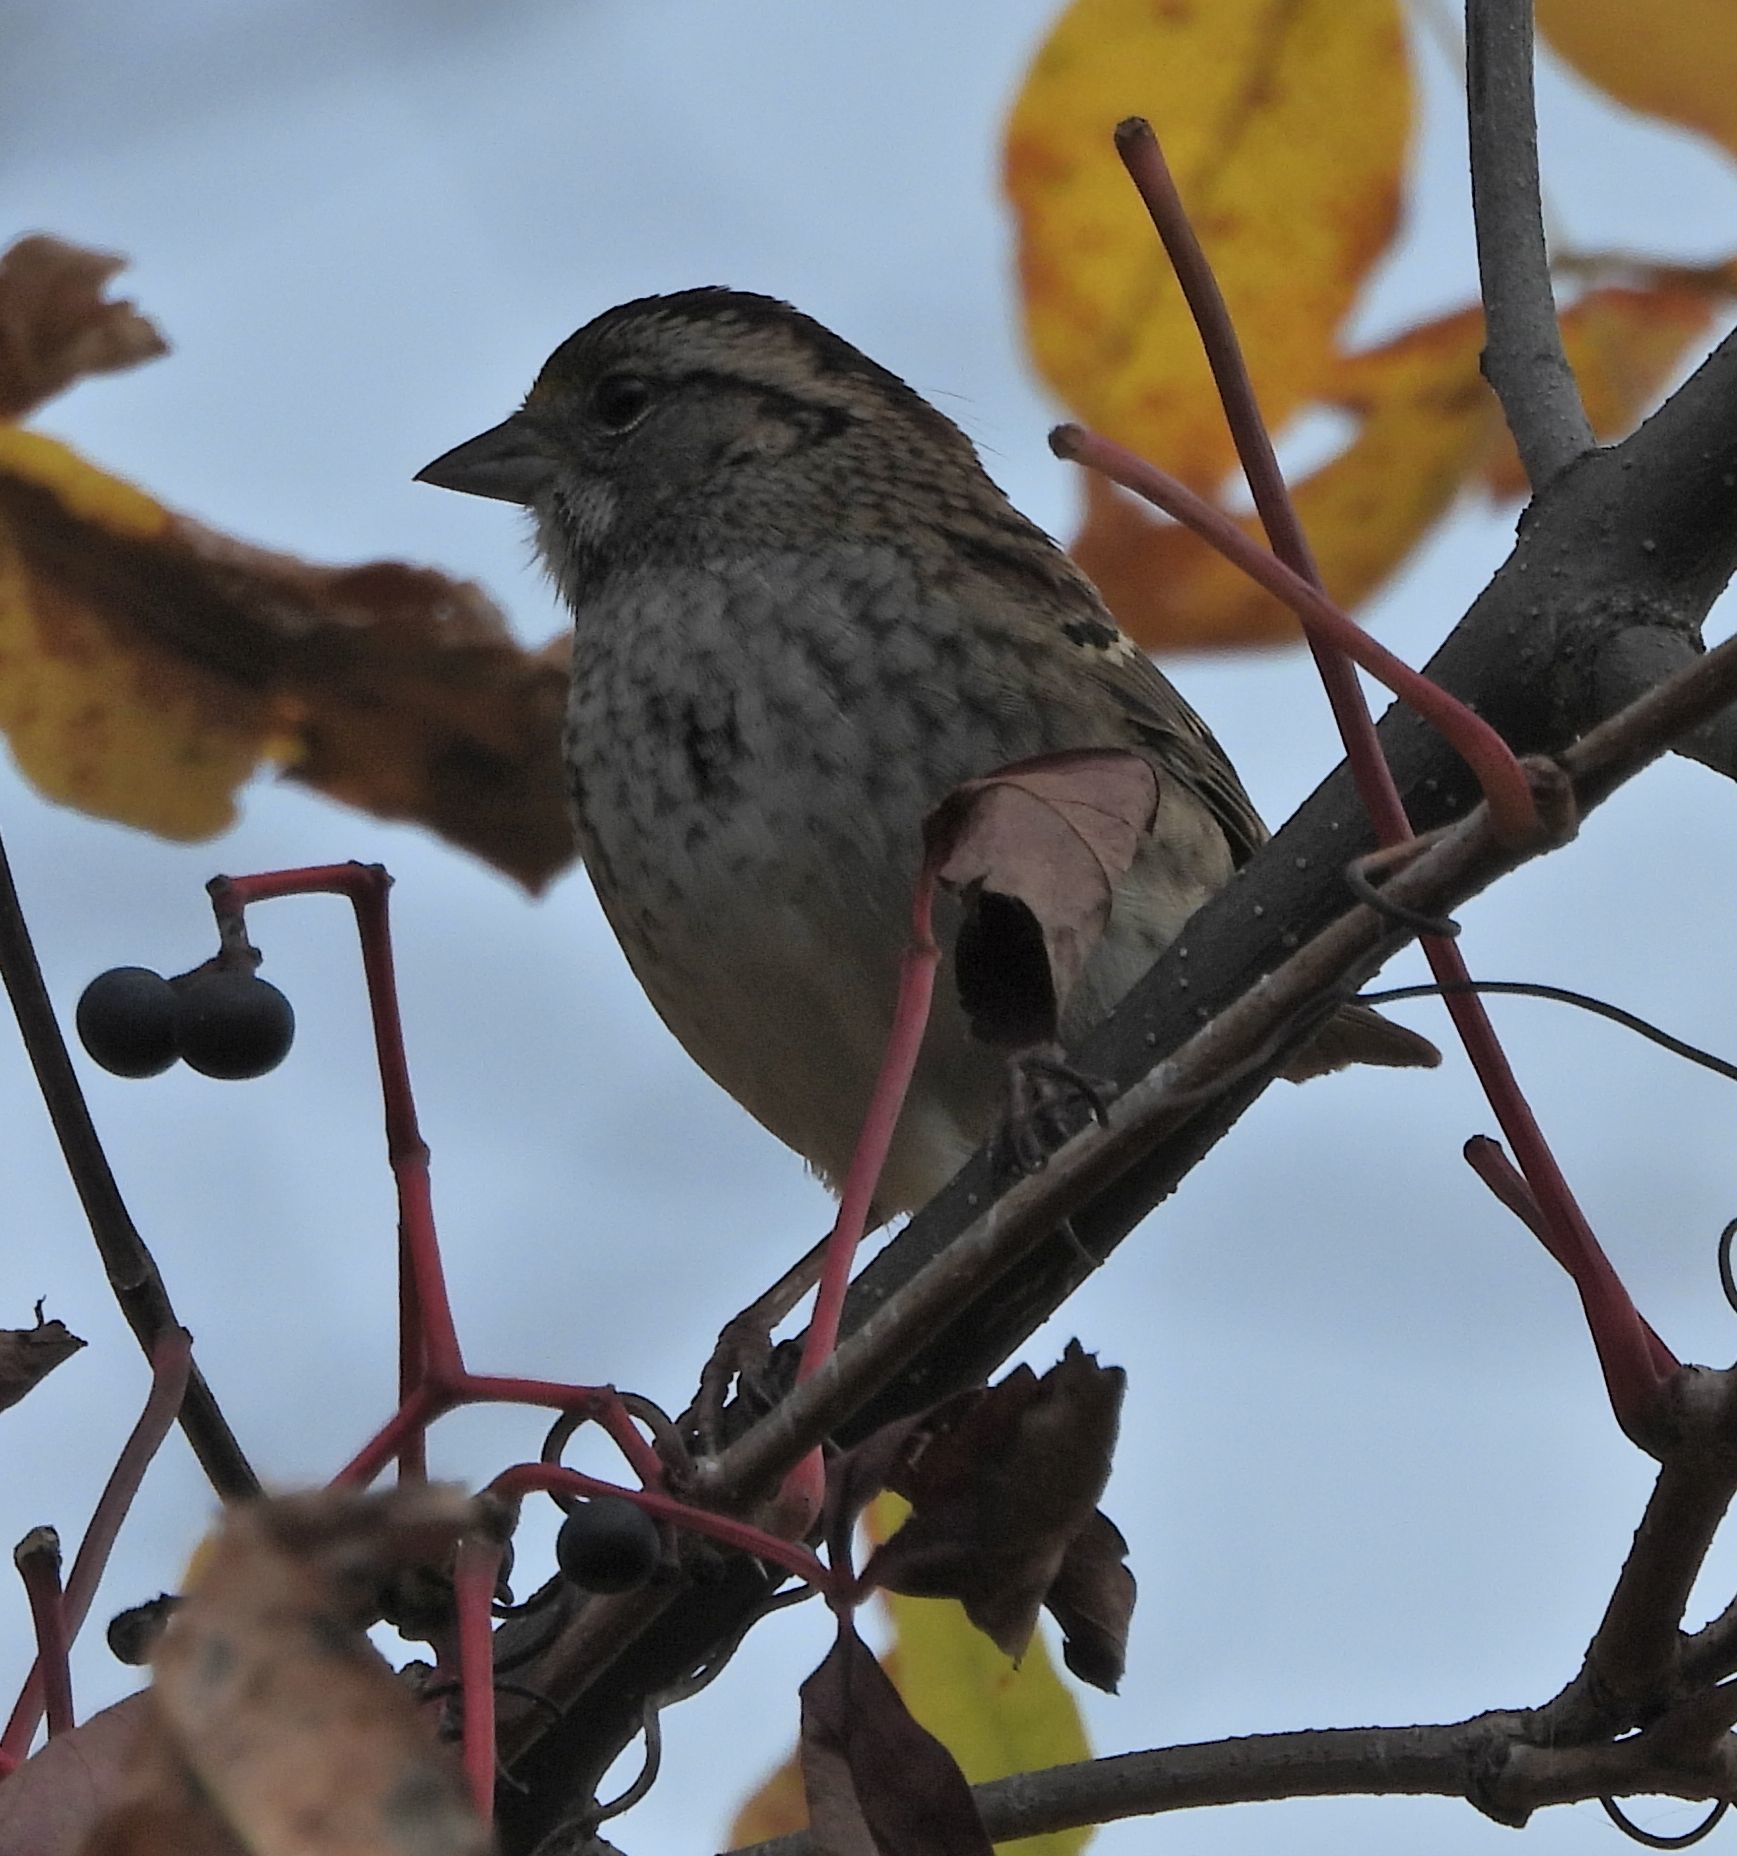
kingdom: Animalia
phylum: Chordata
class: Aves
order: Passeriformes
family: Passerellidae
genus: Zonotrichia
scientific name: Zonotrichia albicollis
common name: White-throated sparrow
